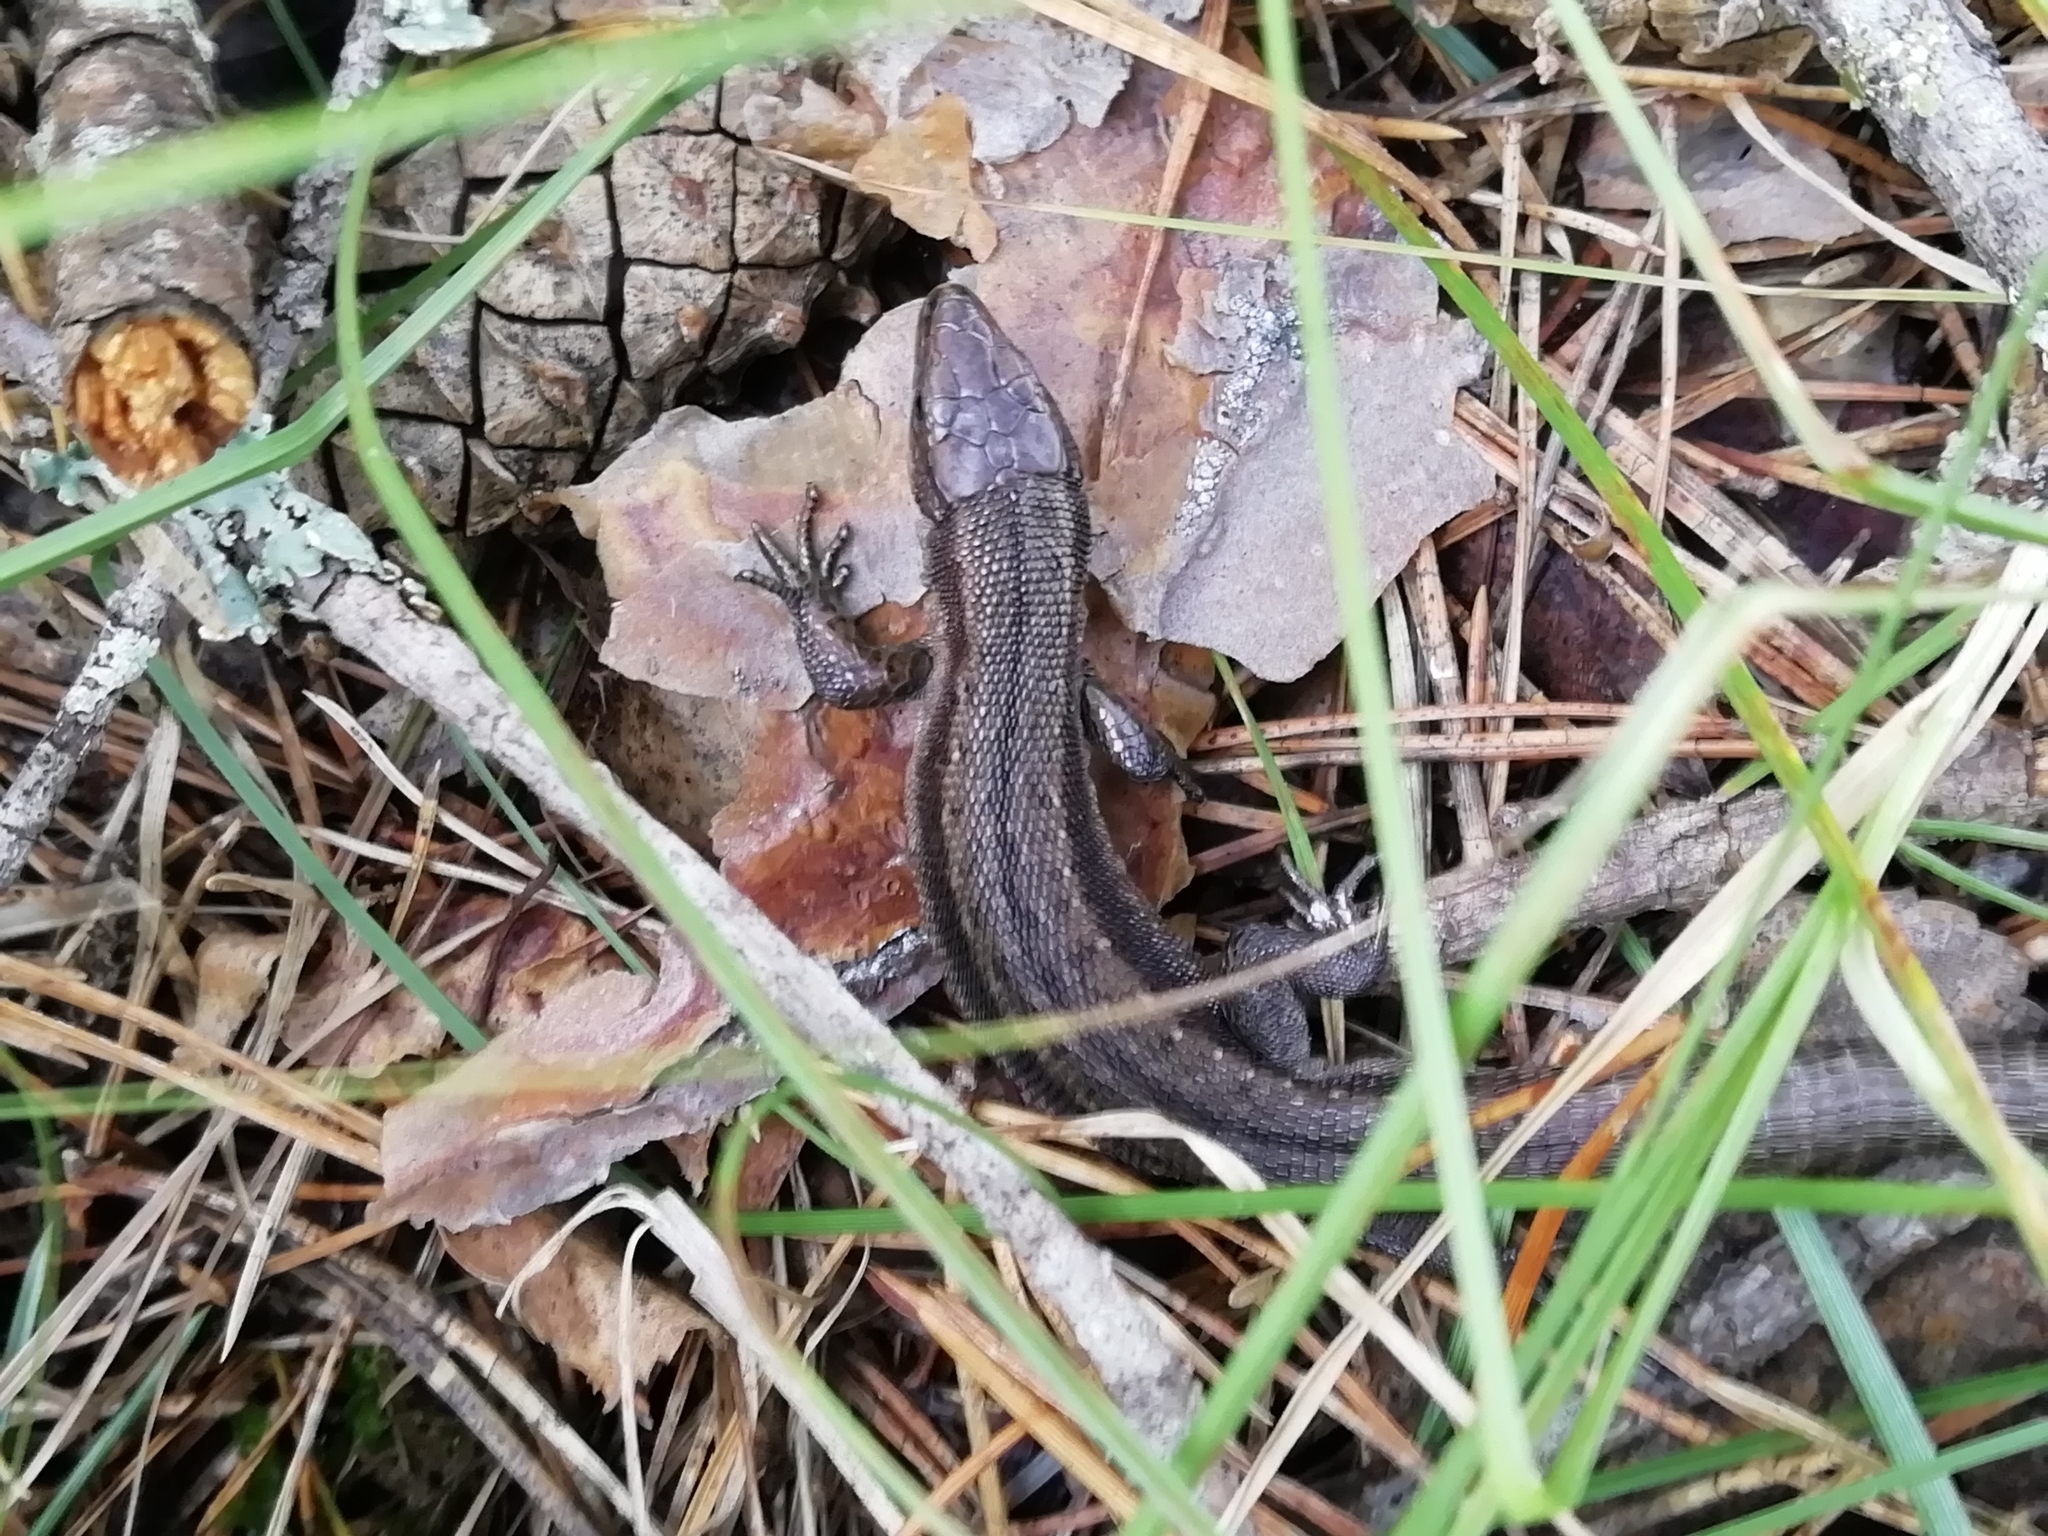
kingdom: Animalia
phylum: Chordata
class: Squamata
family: Lacertidae
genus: Zootoca
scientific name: Zootoca vivipara
